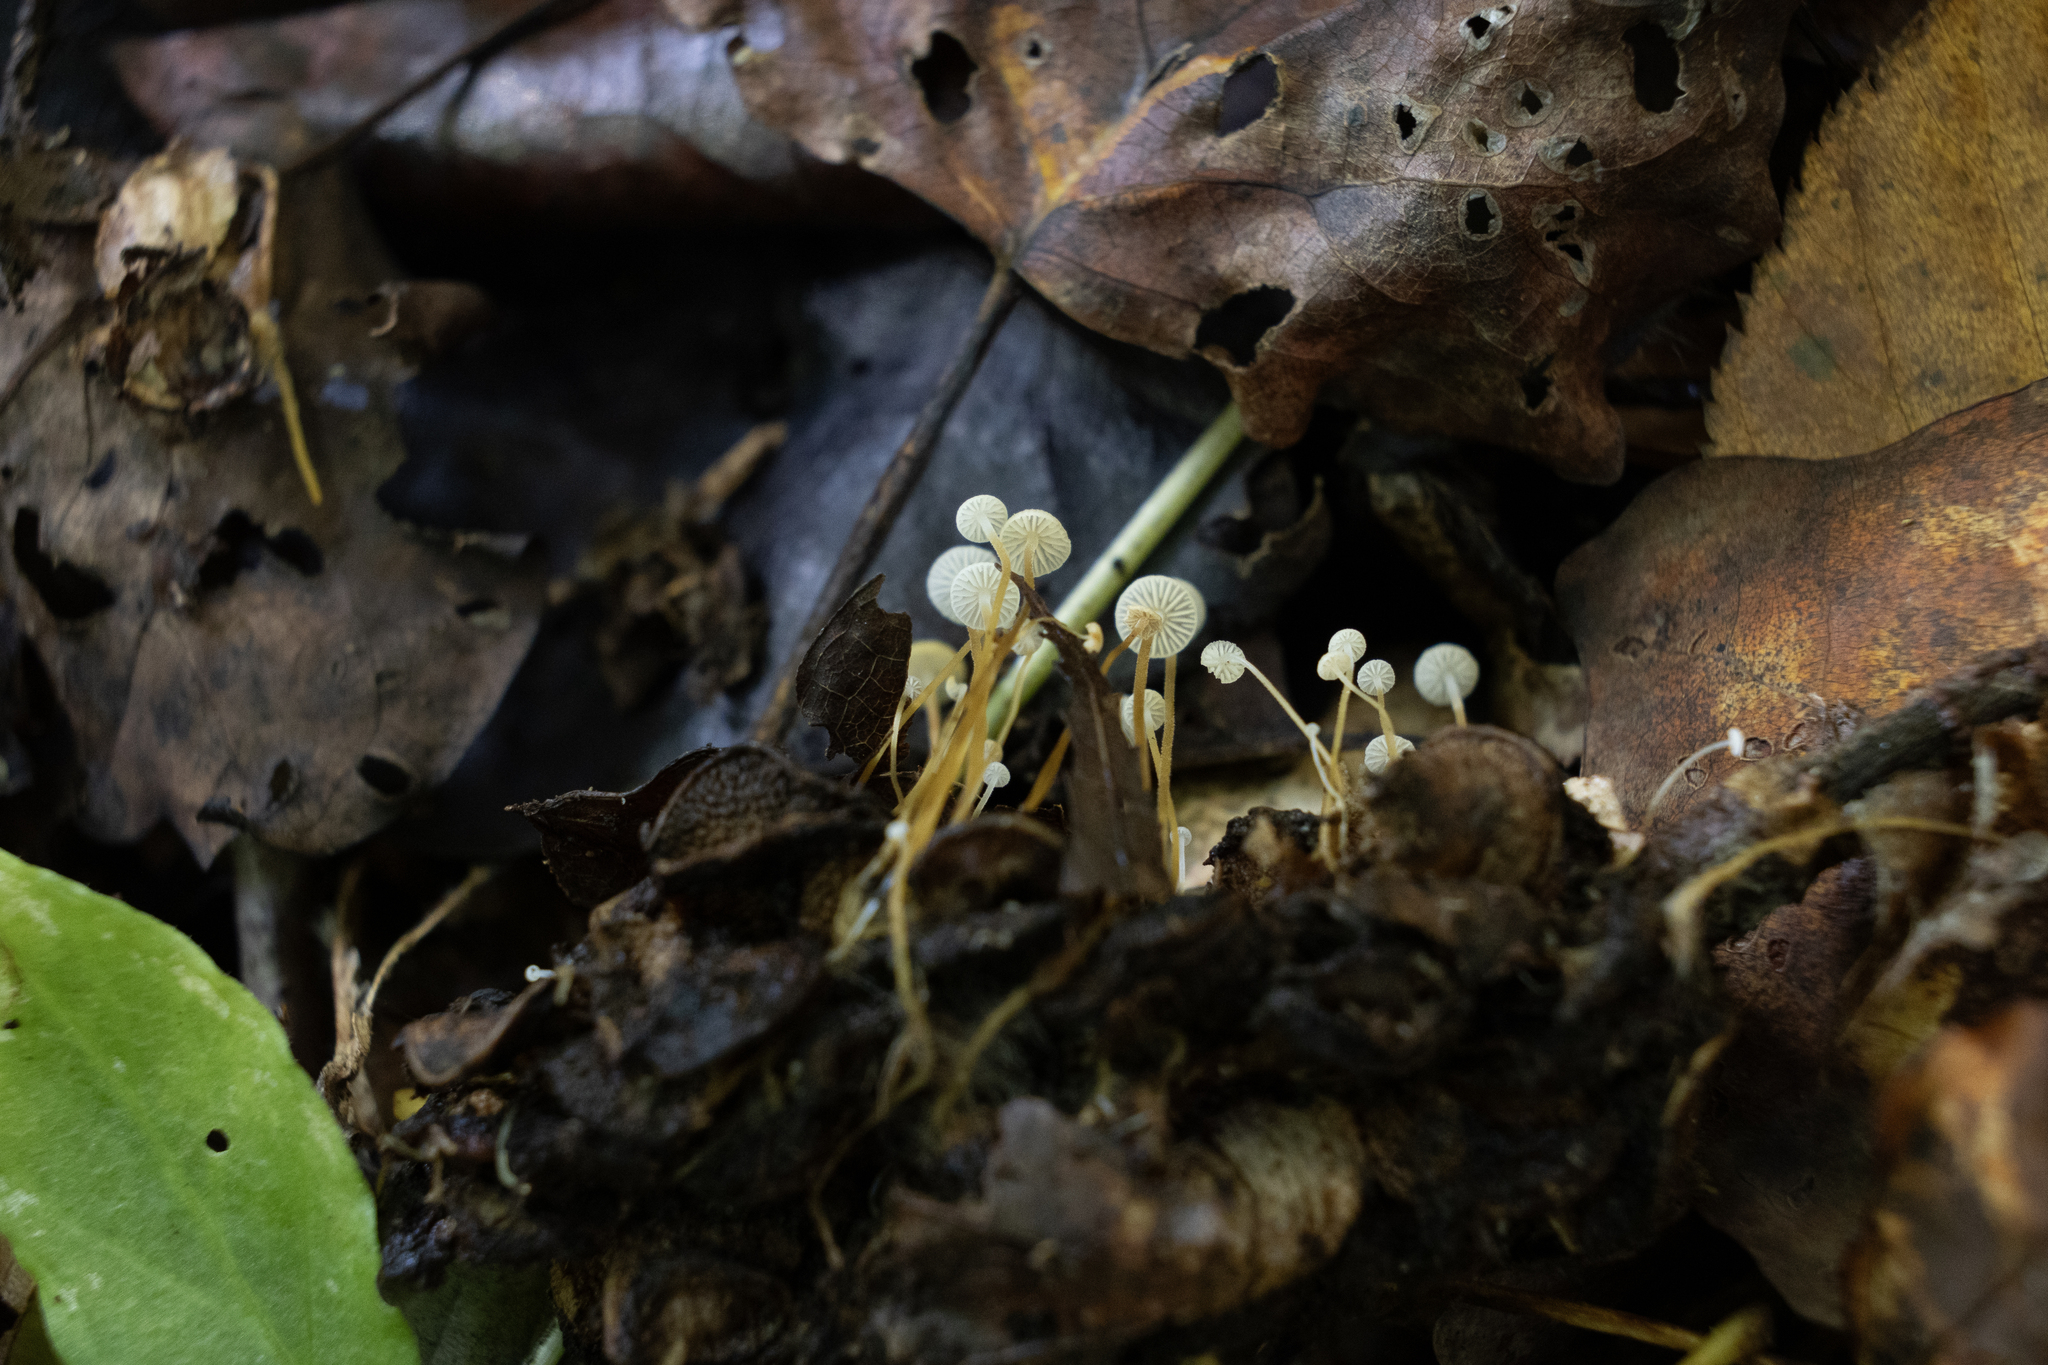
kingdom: Fungi
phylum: Basidiomycota
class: Agaricomycetes
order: Agaricales
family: Physalacriaceae
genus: Strobilurus
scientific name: Strobilurus conigenoides
